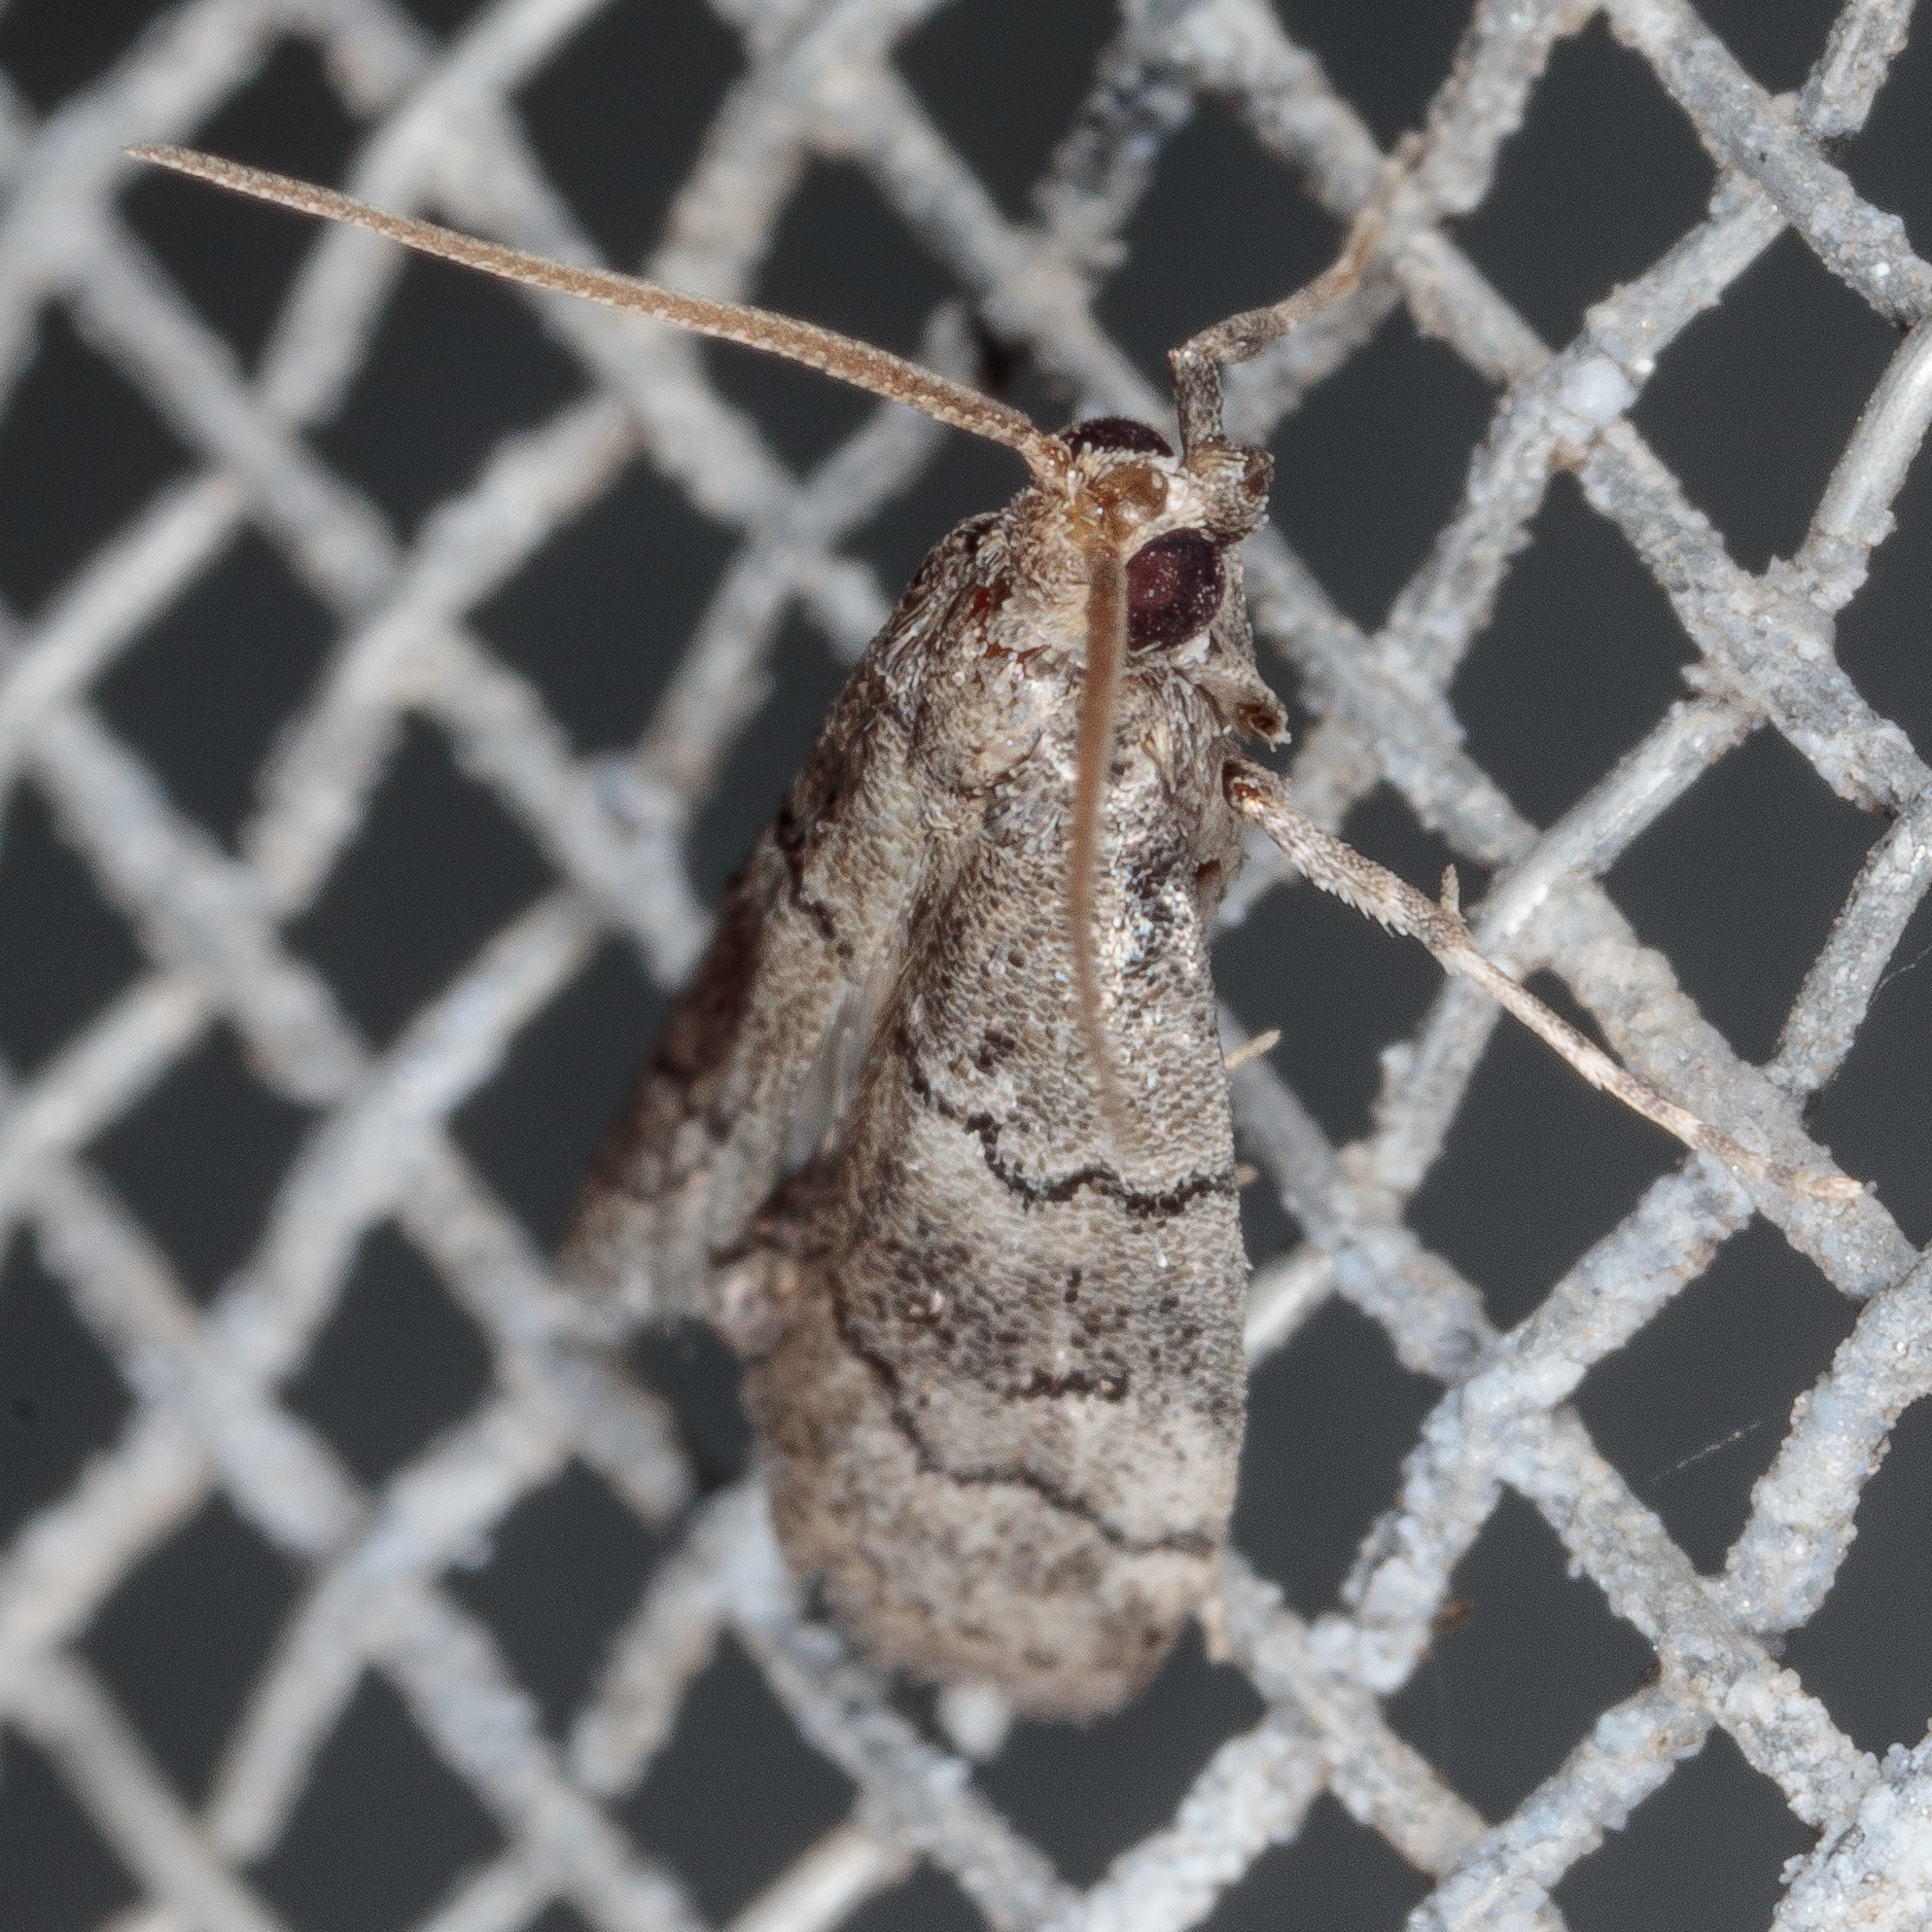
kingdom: Animalia
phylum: Arthropoda
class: Insecta
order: Lepidoptera
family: Pyralidae
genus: Cacotherapia
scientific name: Cacotherapia flexilinealis
